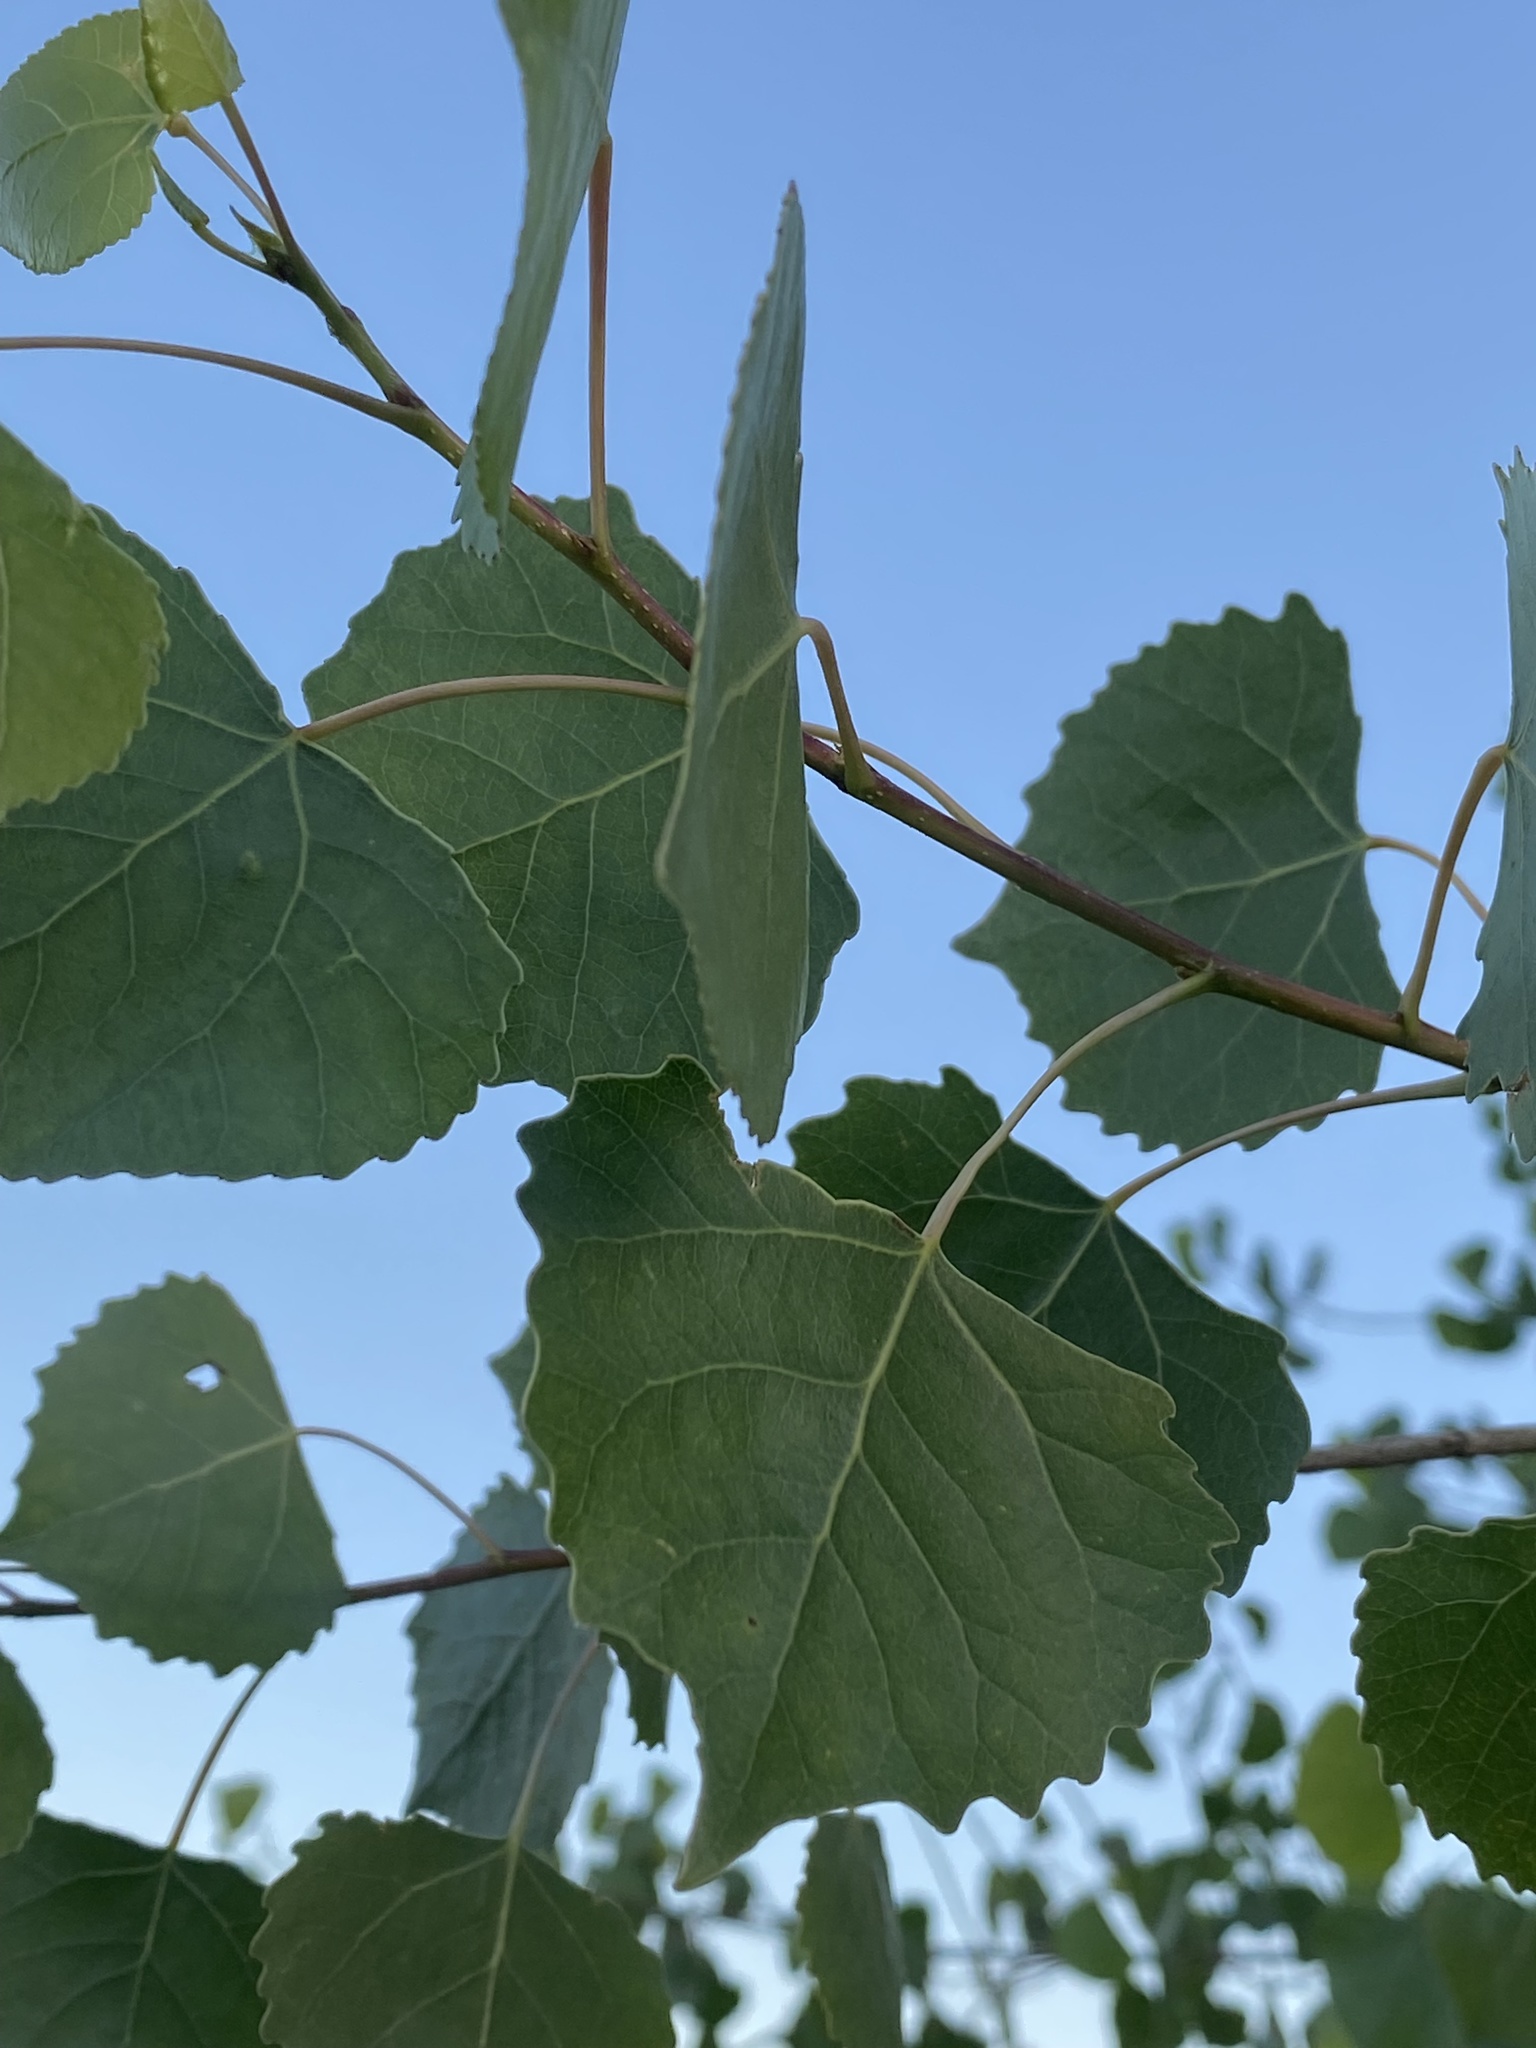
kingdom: Plantae
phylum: Tracheophyta
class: Magnoliopsida
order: Malpighiales
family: Salicaceae
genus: Populus
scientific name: Populus fremontii
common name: Fremont's cottonwood
